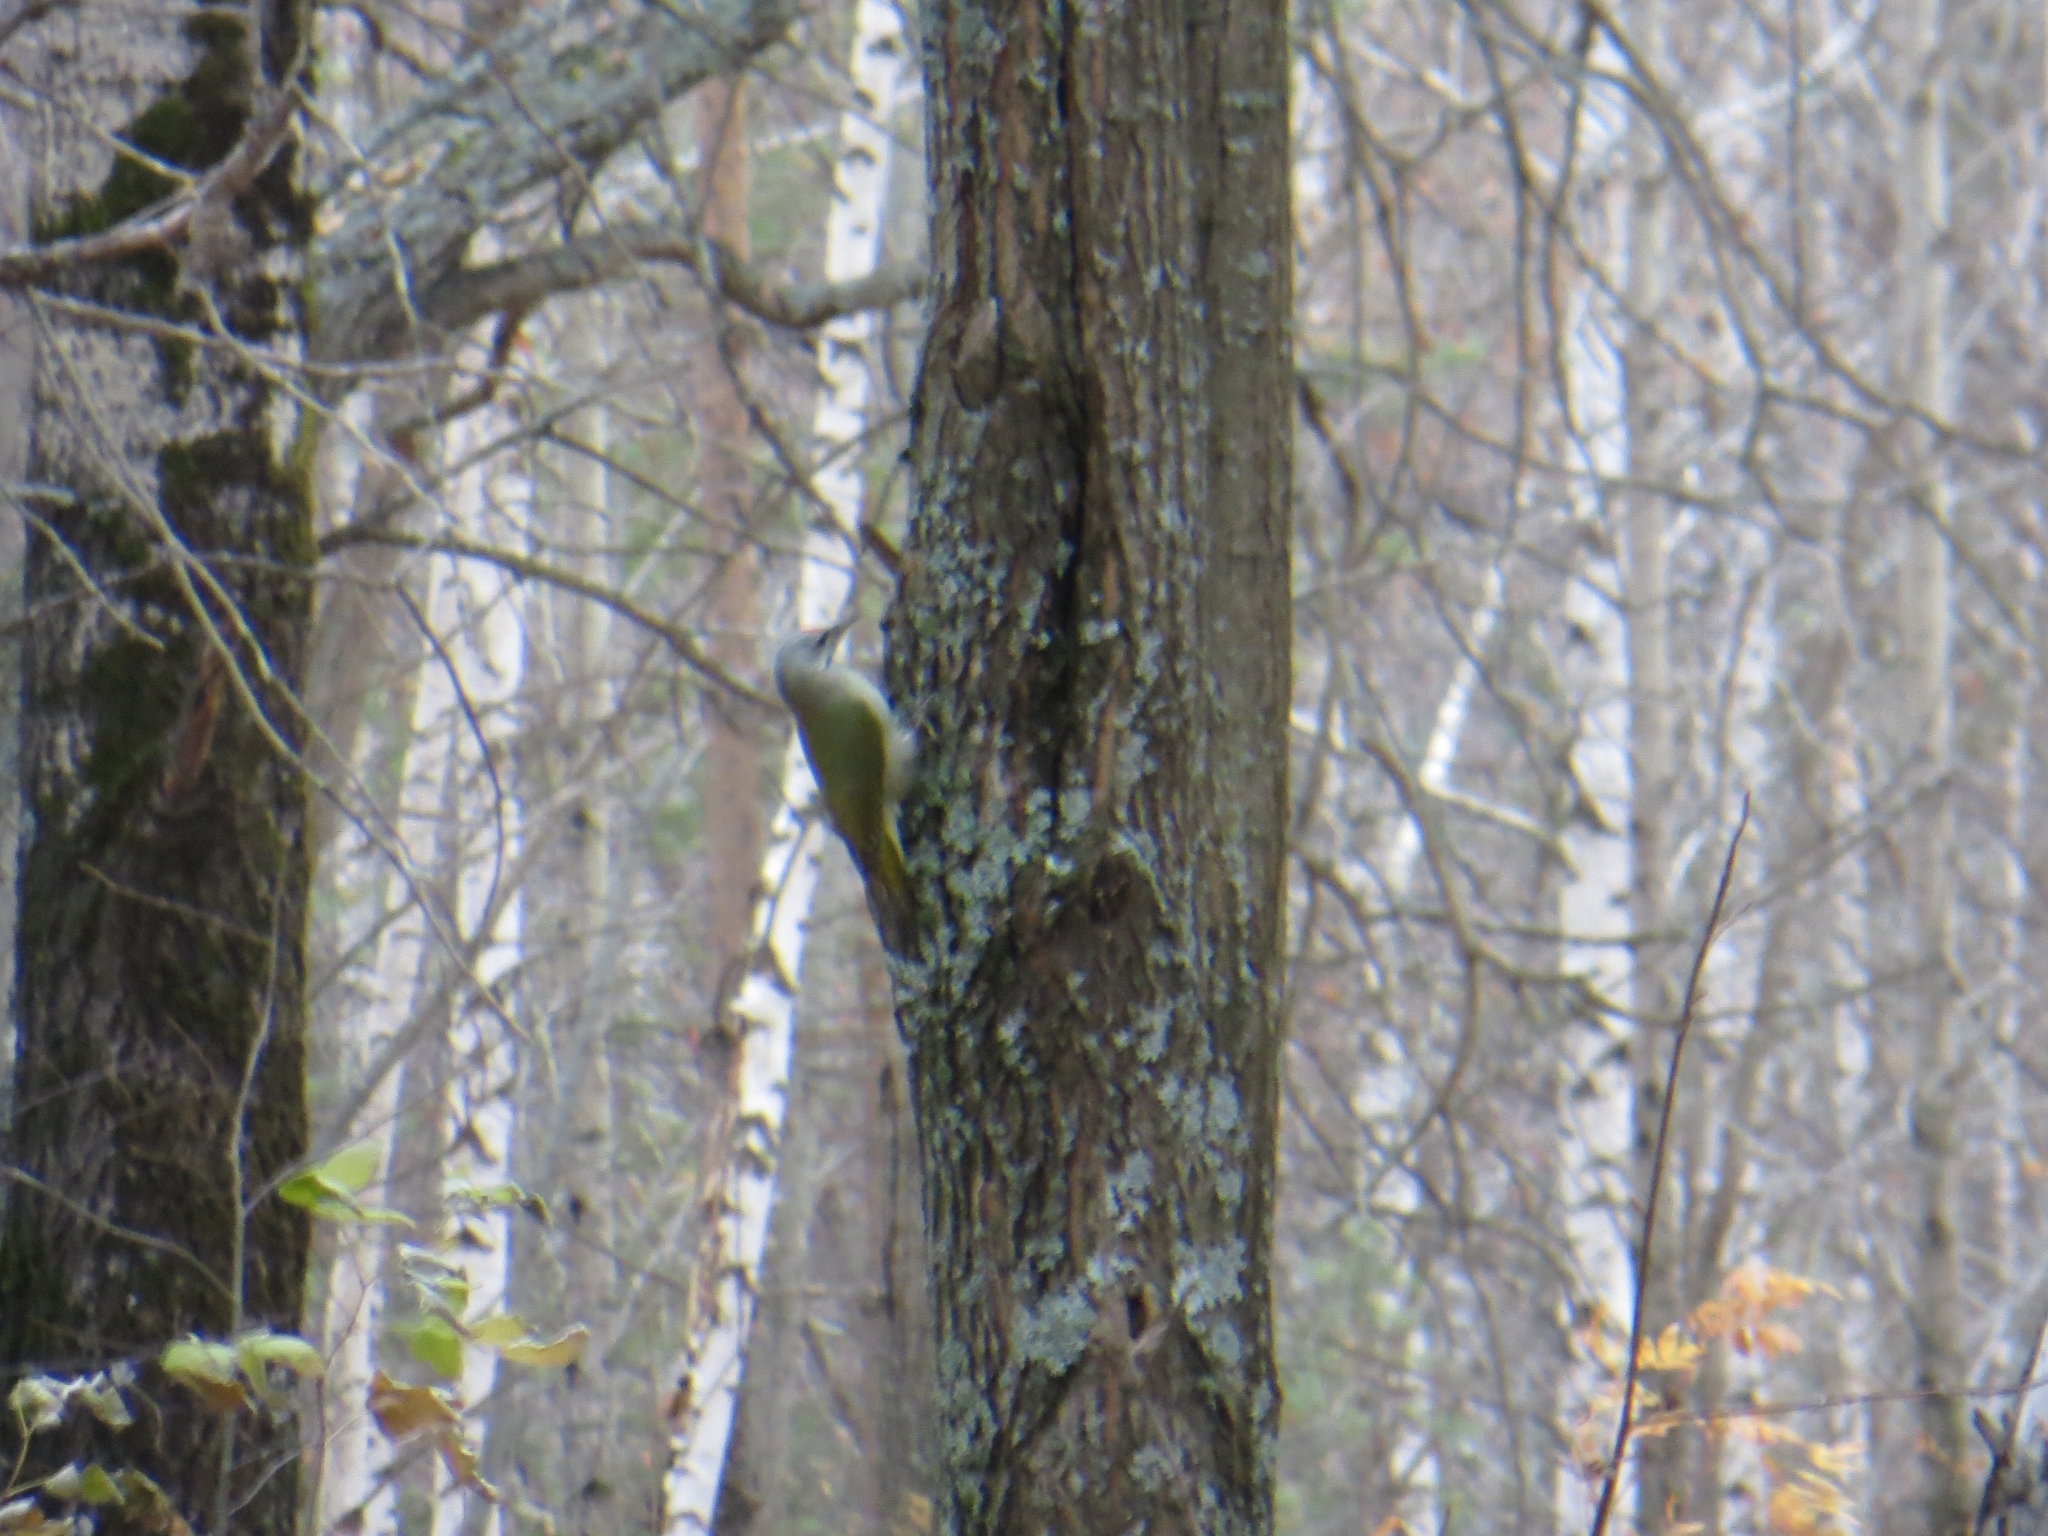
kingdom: Animalia
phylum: Chordata
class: Aves
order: Piciformes
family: Picidae
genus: Picus
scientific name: Picus canus
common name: Grey-headed woodpecker
